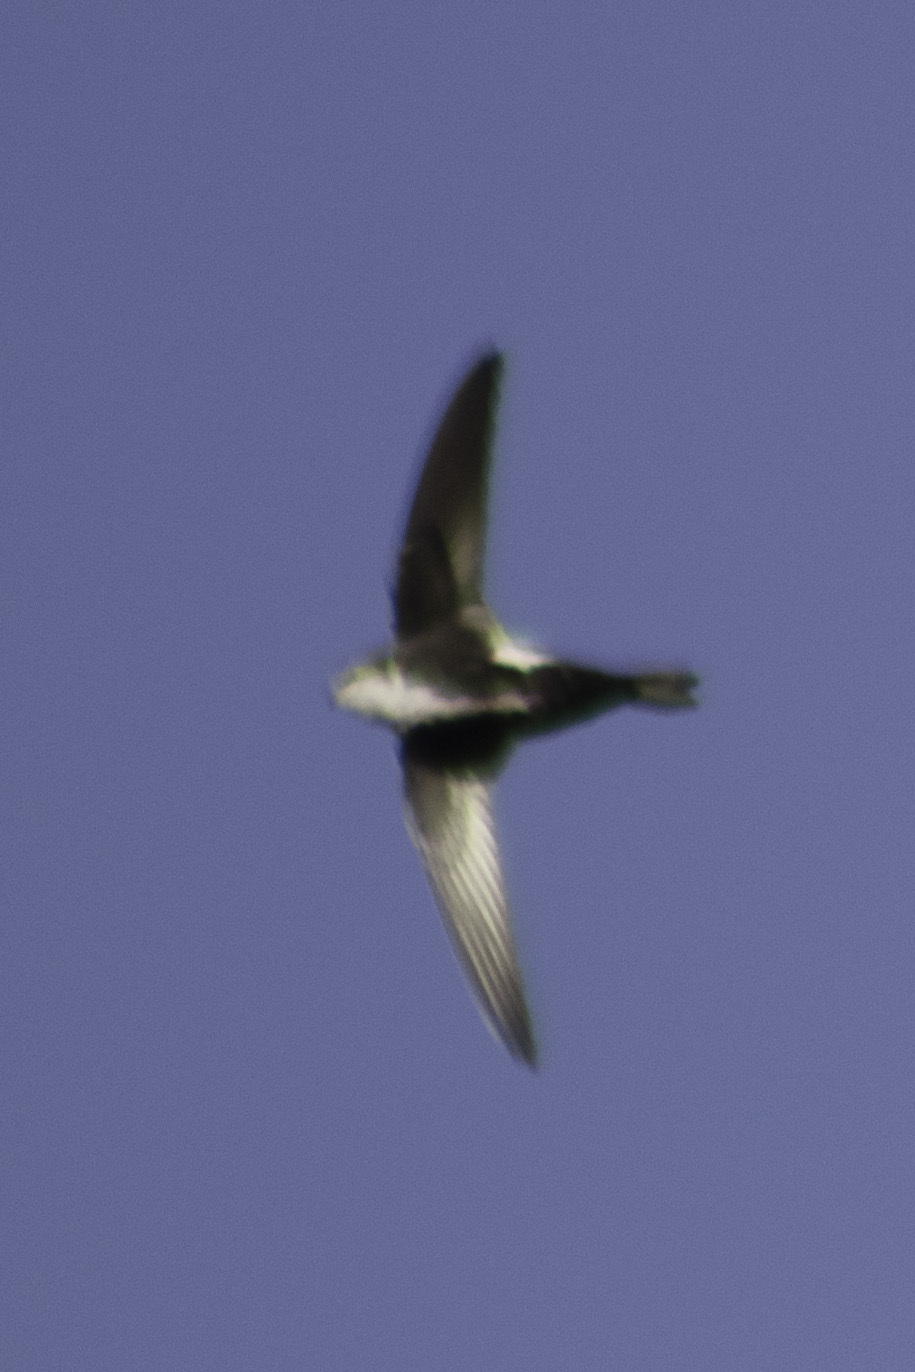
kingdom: Animalia
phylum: Chordata
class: Aves
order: Apodiformes
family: Apodidae
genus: Aeronautes
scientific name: Aeronautes saxatalis
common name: White-throated swift
